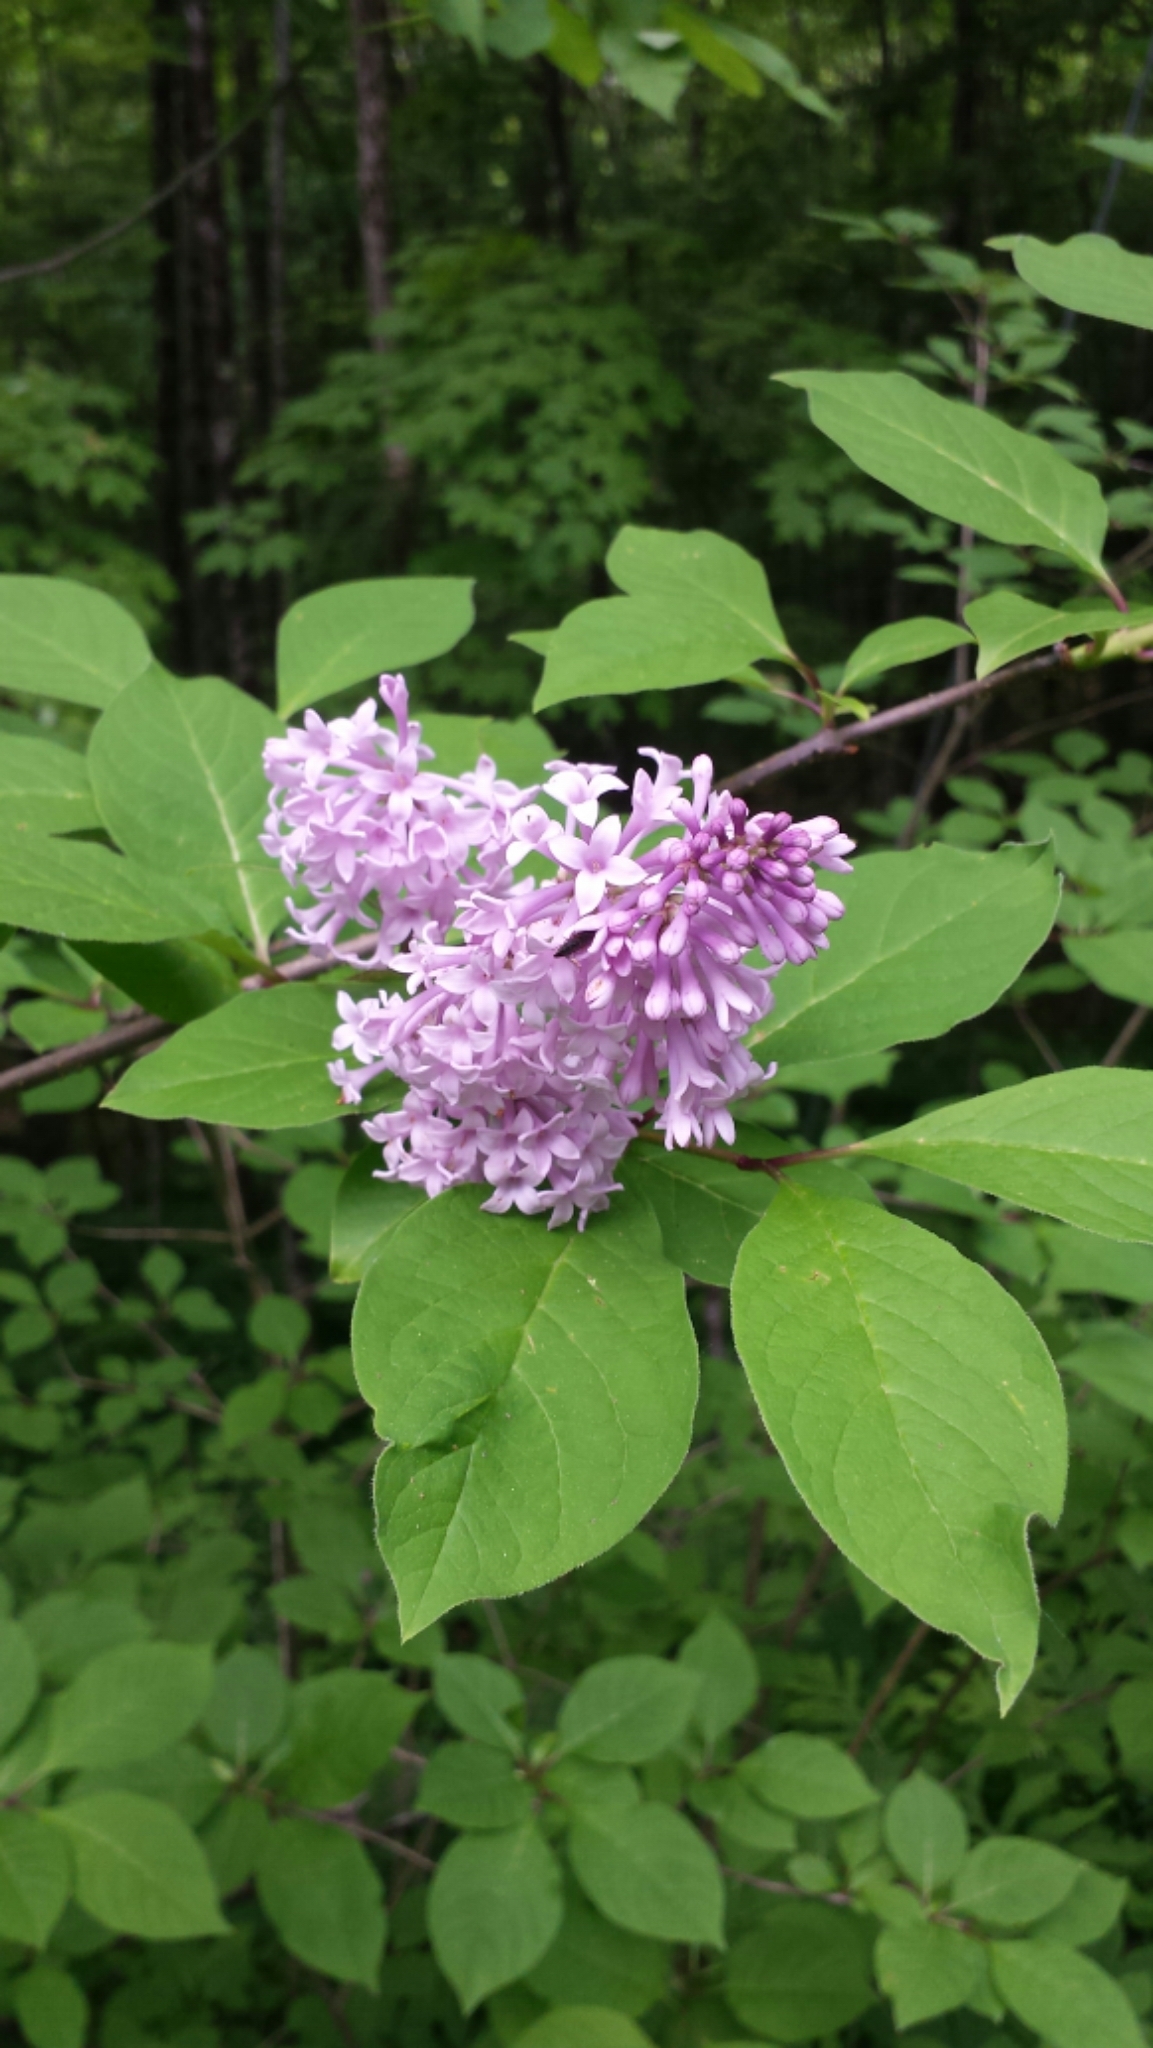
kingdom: Plantae
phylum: Tracheophyta
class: Magnoliopsida
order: Lamiales
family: Oleaceae
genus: Syringa
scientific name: Syringa josikaea
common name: Hungarian lilac
